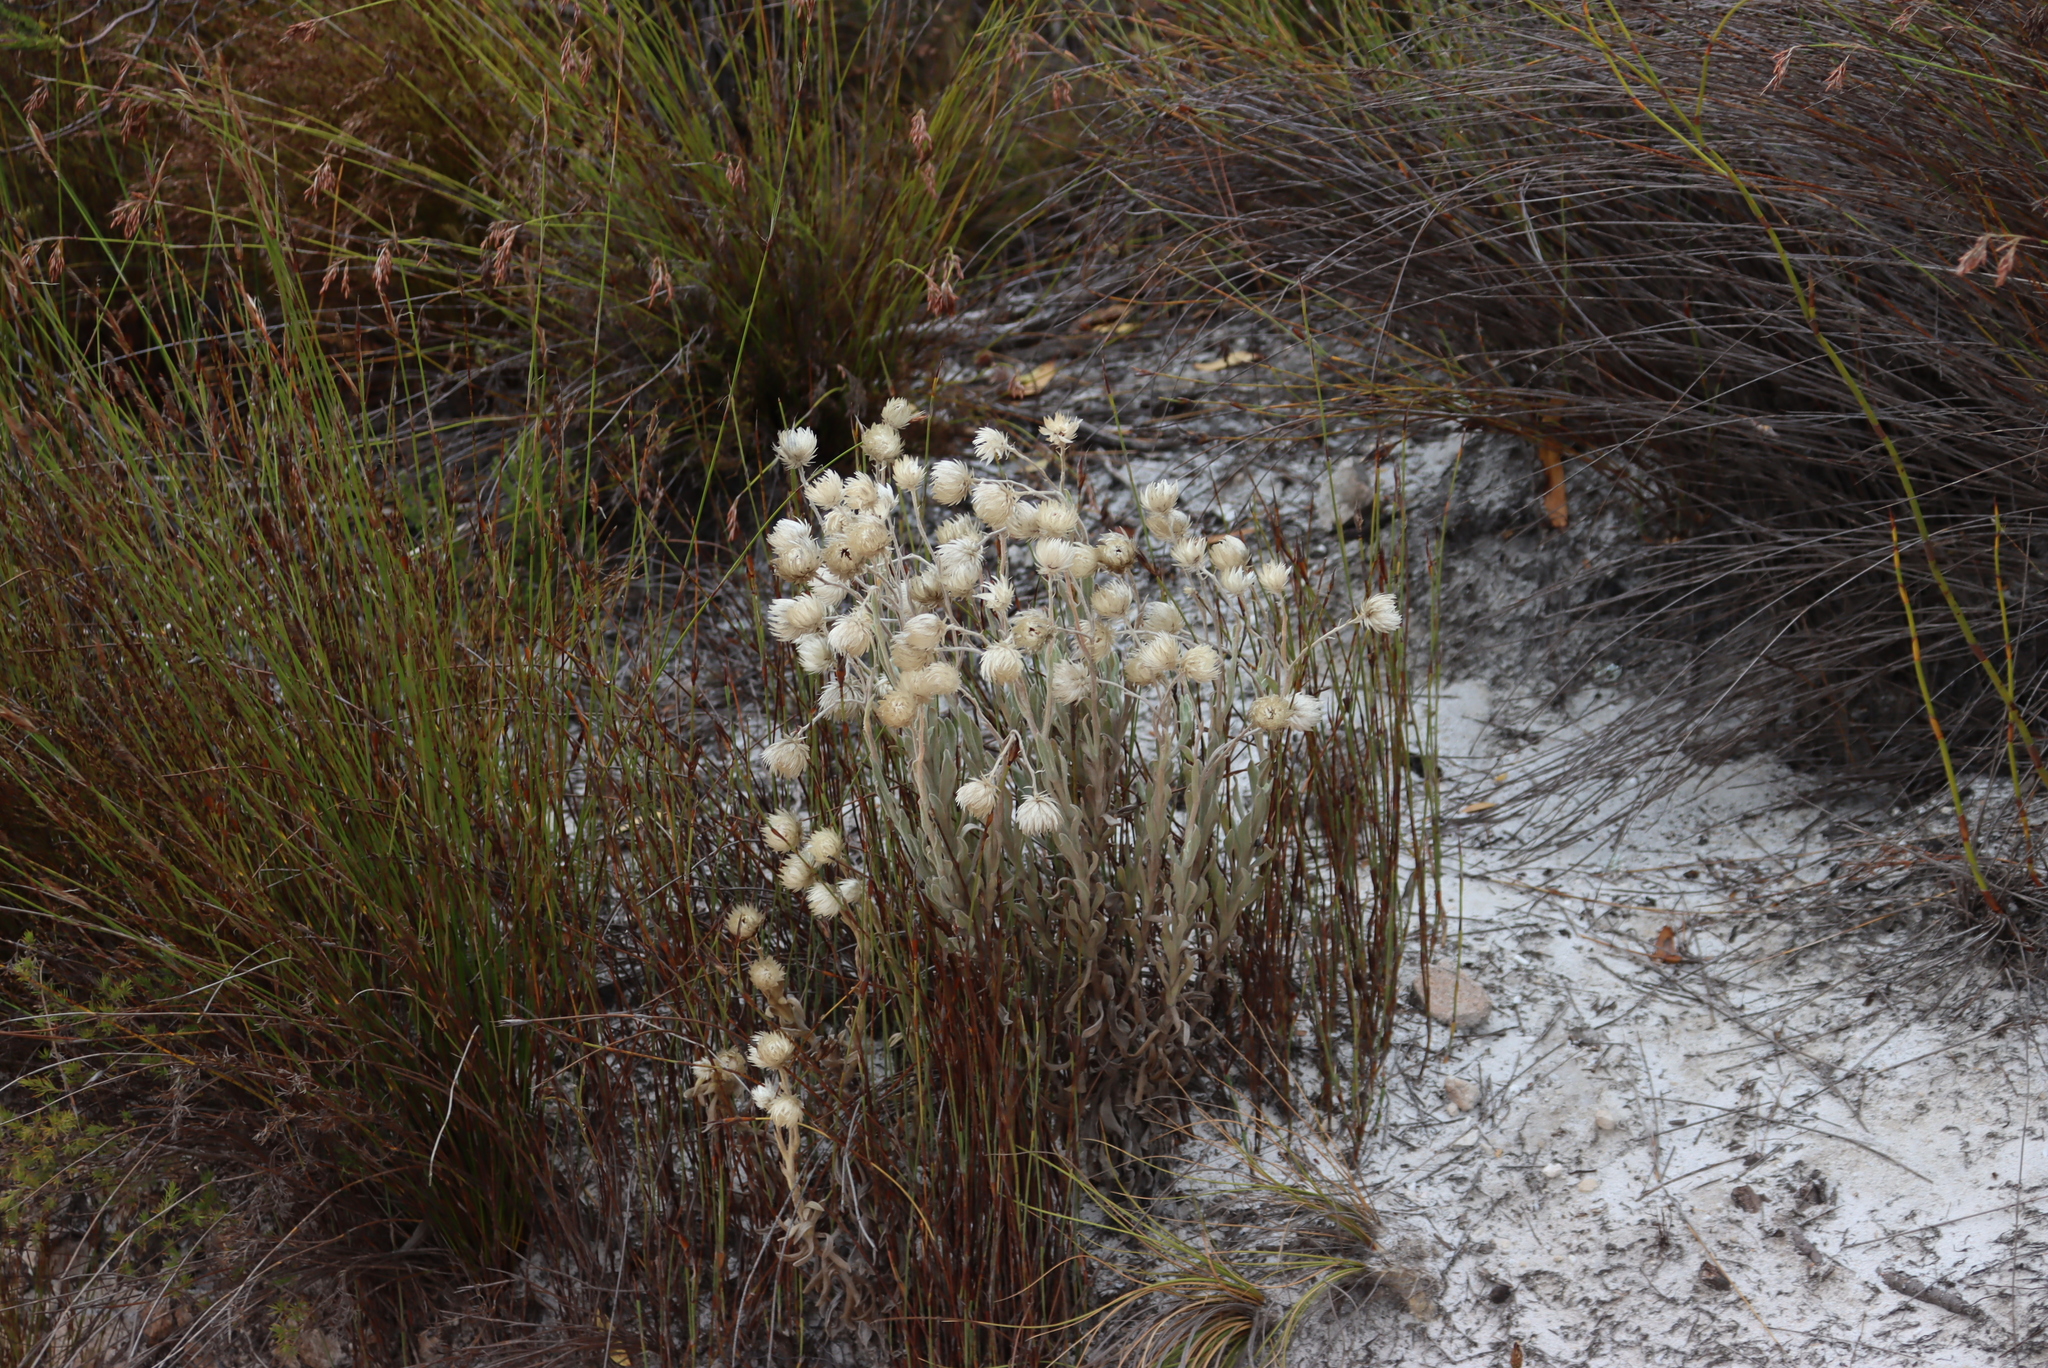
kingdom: Plantae
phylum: Tracheophyta
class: Magnoliopsida
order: Asterales
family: Asteraceae
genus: Syncarpha
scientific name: Syncarpha vestita
